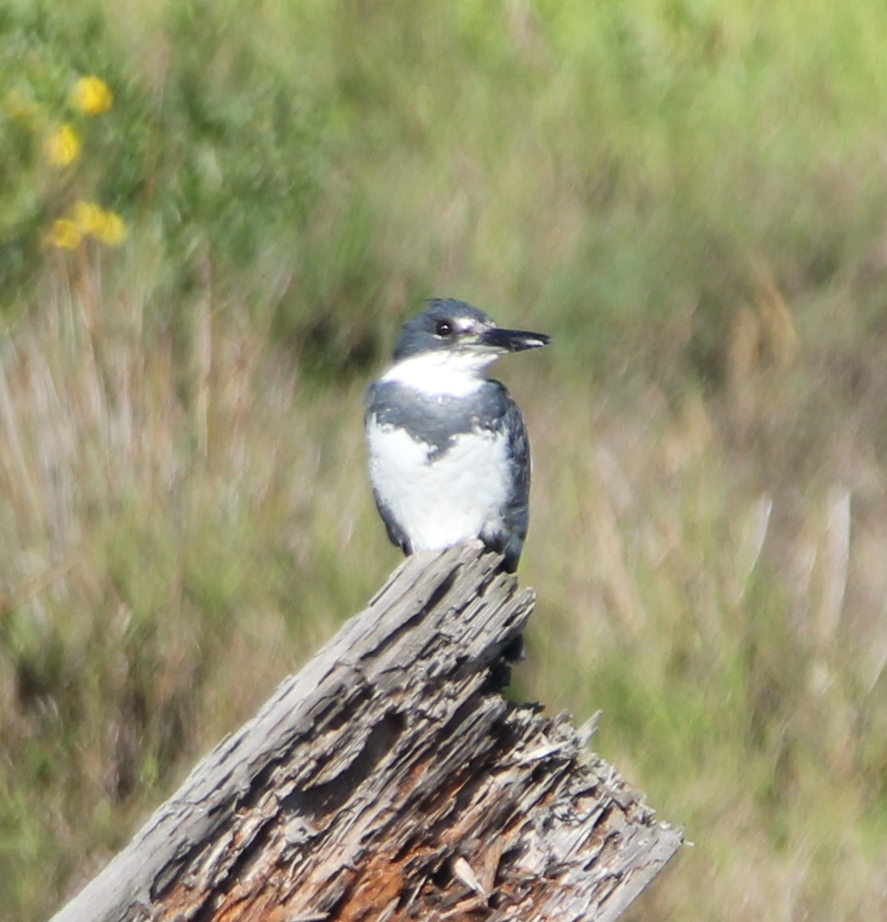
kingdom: Animalia
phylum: Chordata
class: Aves
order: Coraciiformes
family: Alcedinidae
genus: Megaceryle
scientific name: Megaceryle alcyon
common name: Belted kingfisher
